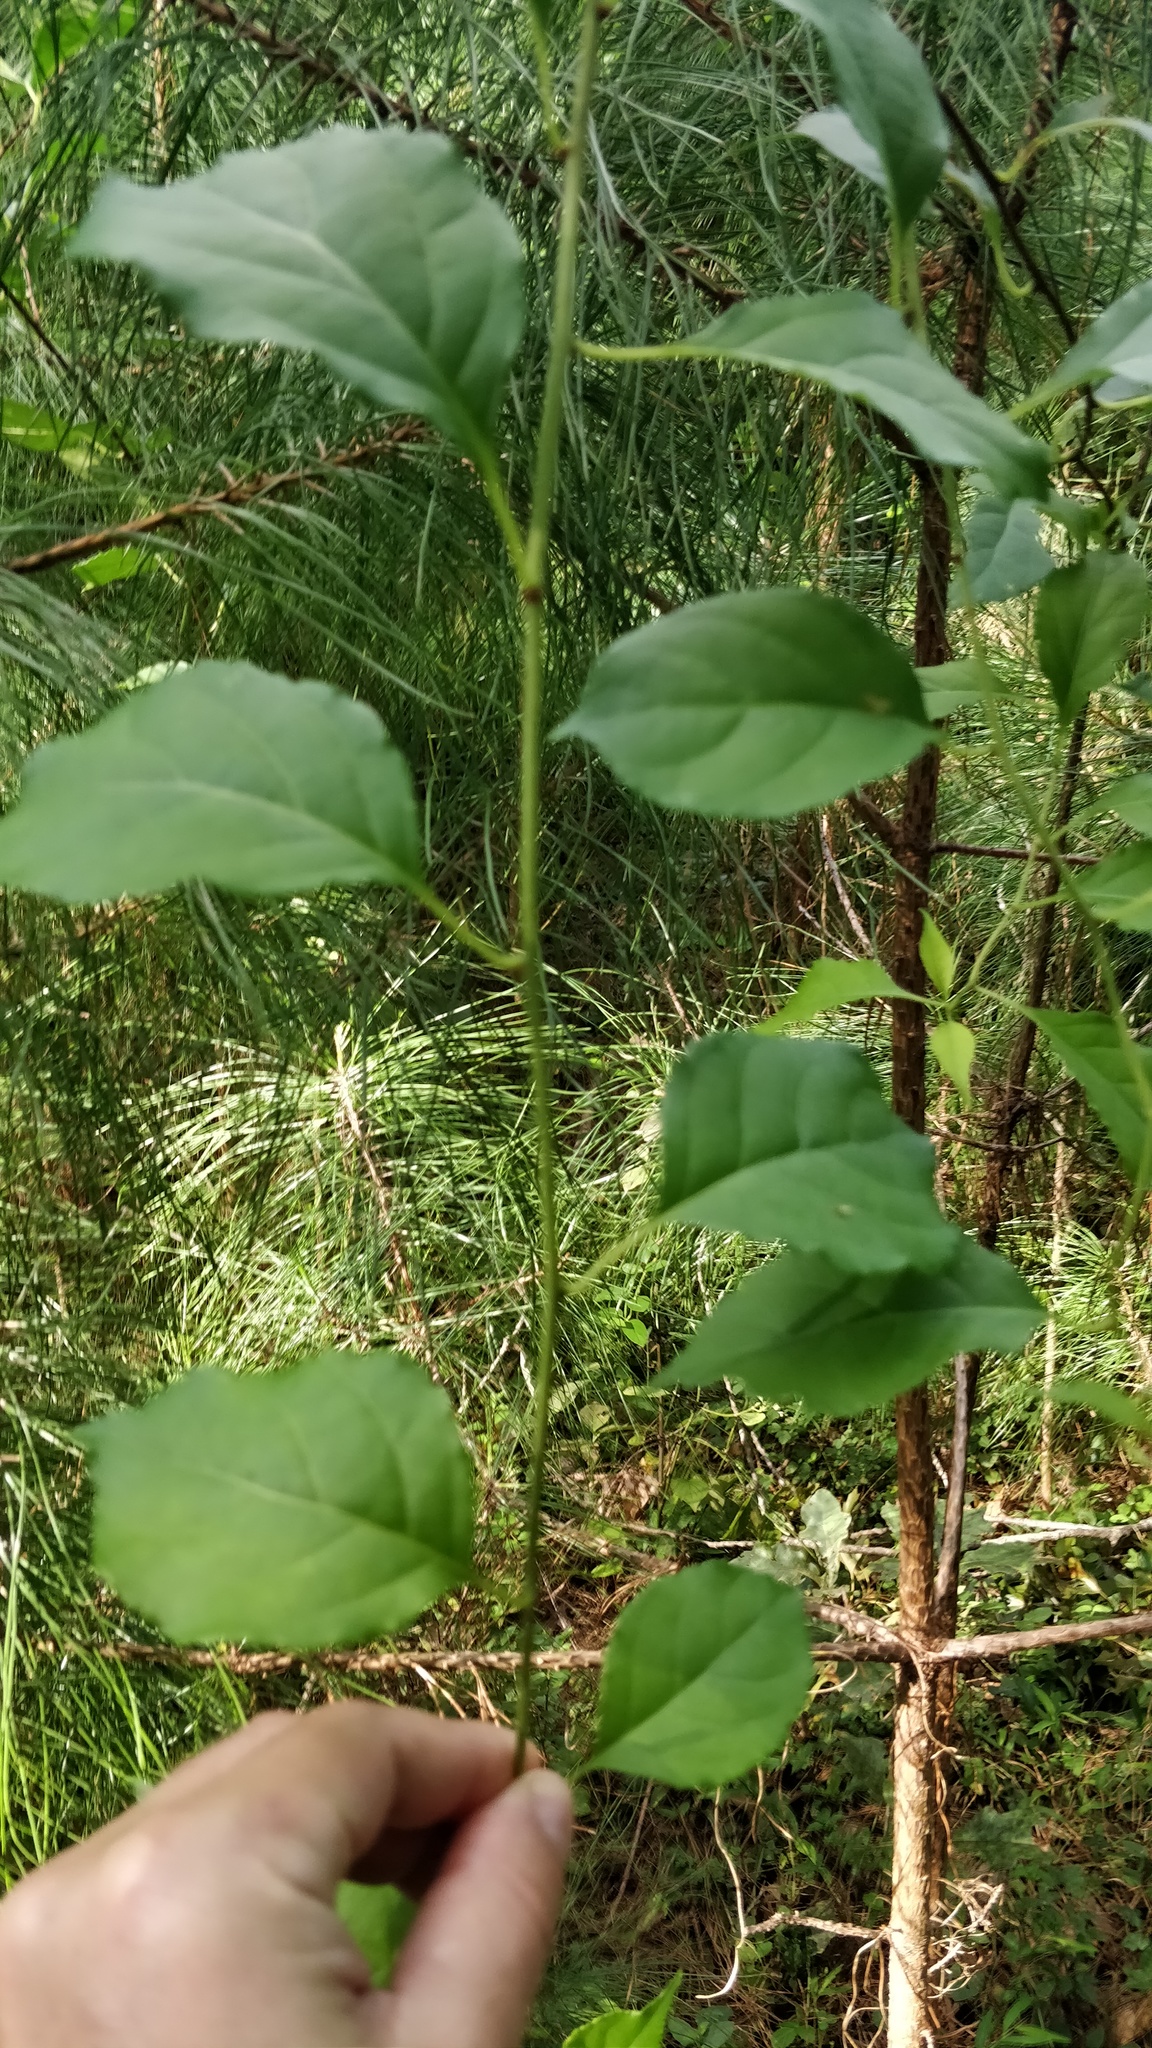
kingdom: Plantae
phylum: Tracheophyta
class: Magnoliopsida
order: Celastrales
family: Celastraceae
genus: Celastrus
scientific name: Celastrus orbiculatus
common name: Oriental bittersweet
